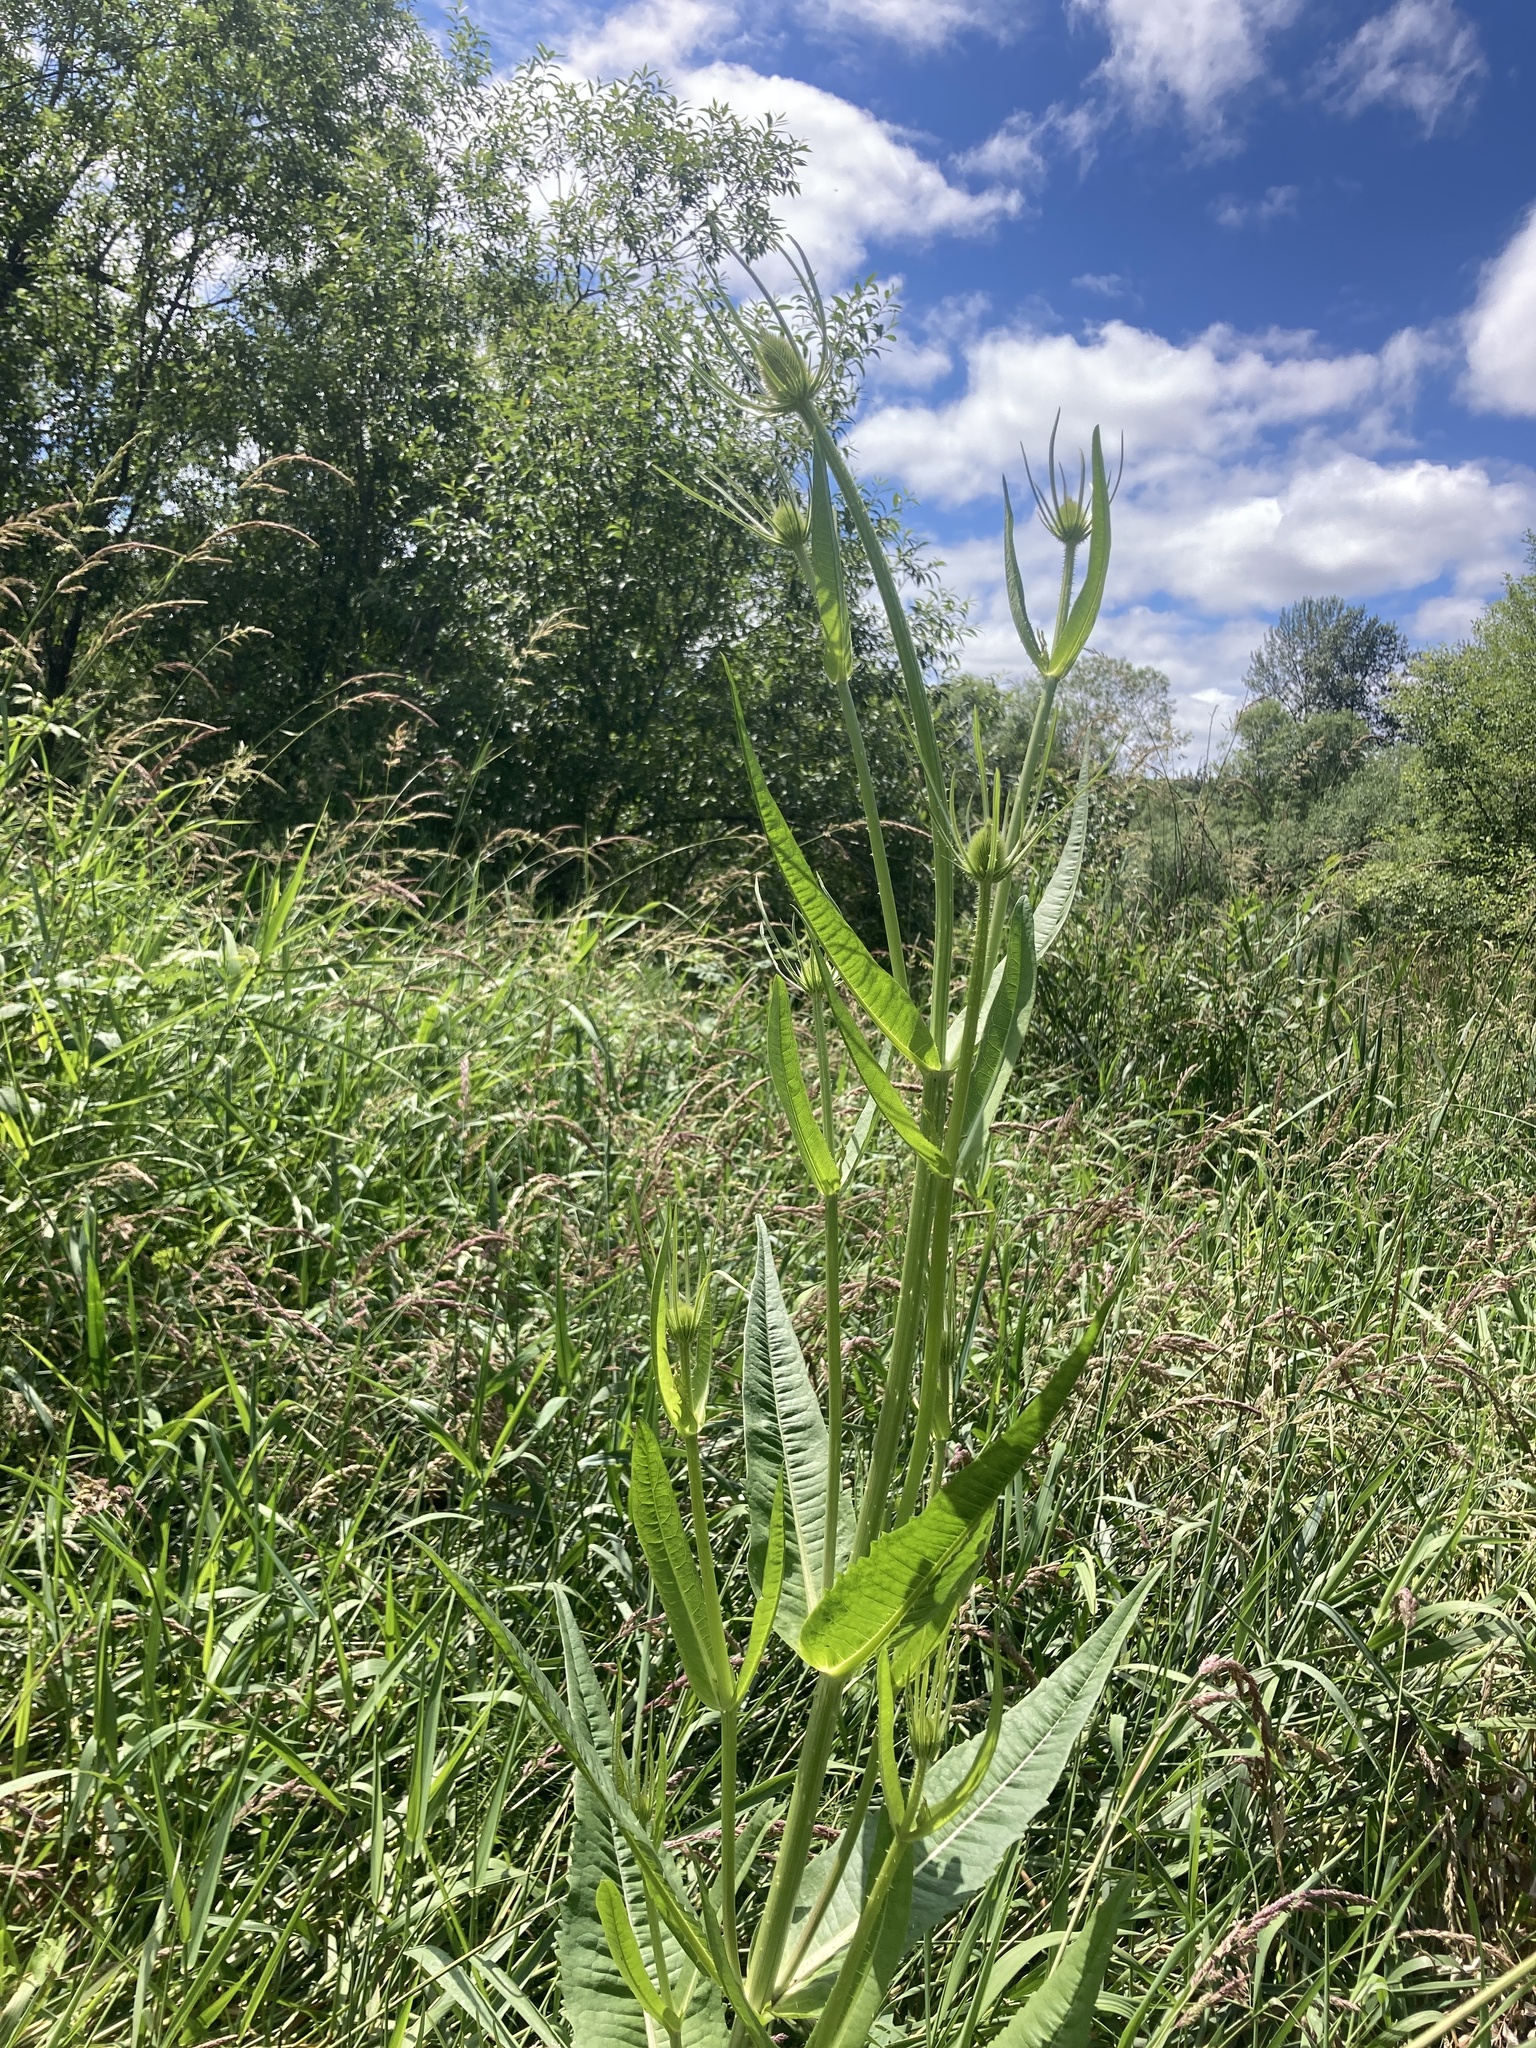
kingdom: Plantae
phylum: Tracheophyta
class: Magnoliopsida
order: Dipsacales
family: Caprifoliaceae
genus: Dipsacus
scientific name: Dipsacus fullonum
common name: Teasel
